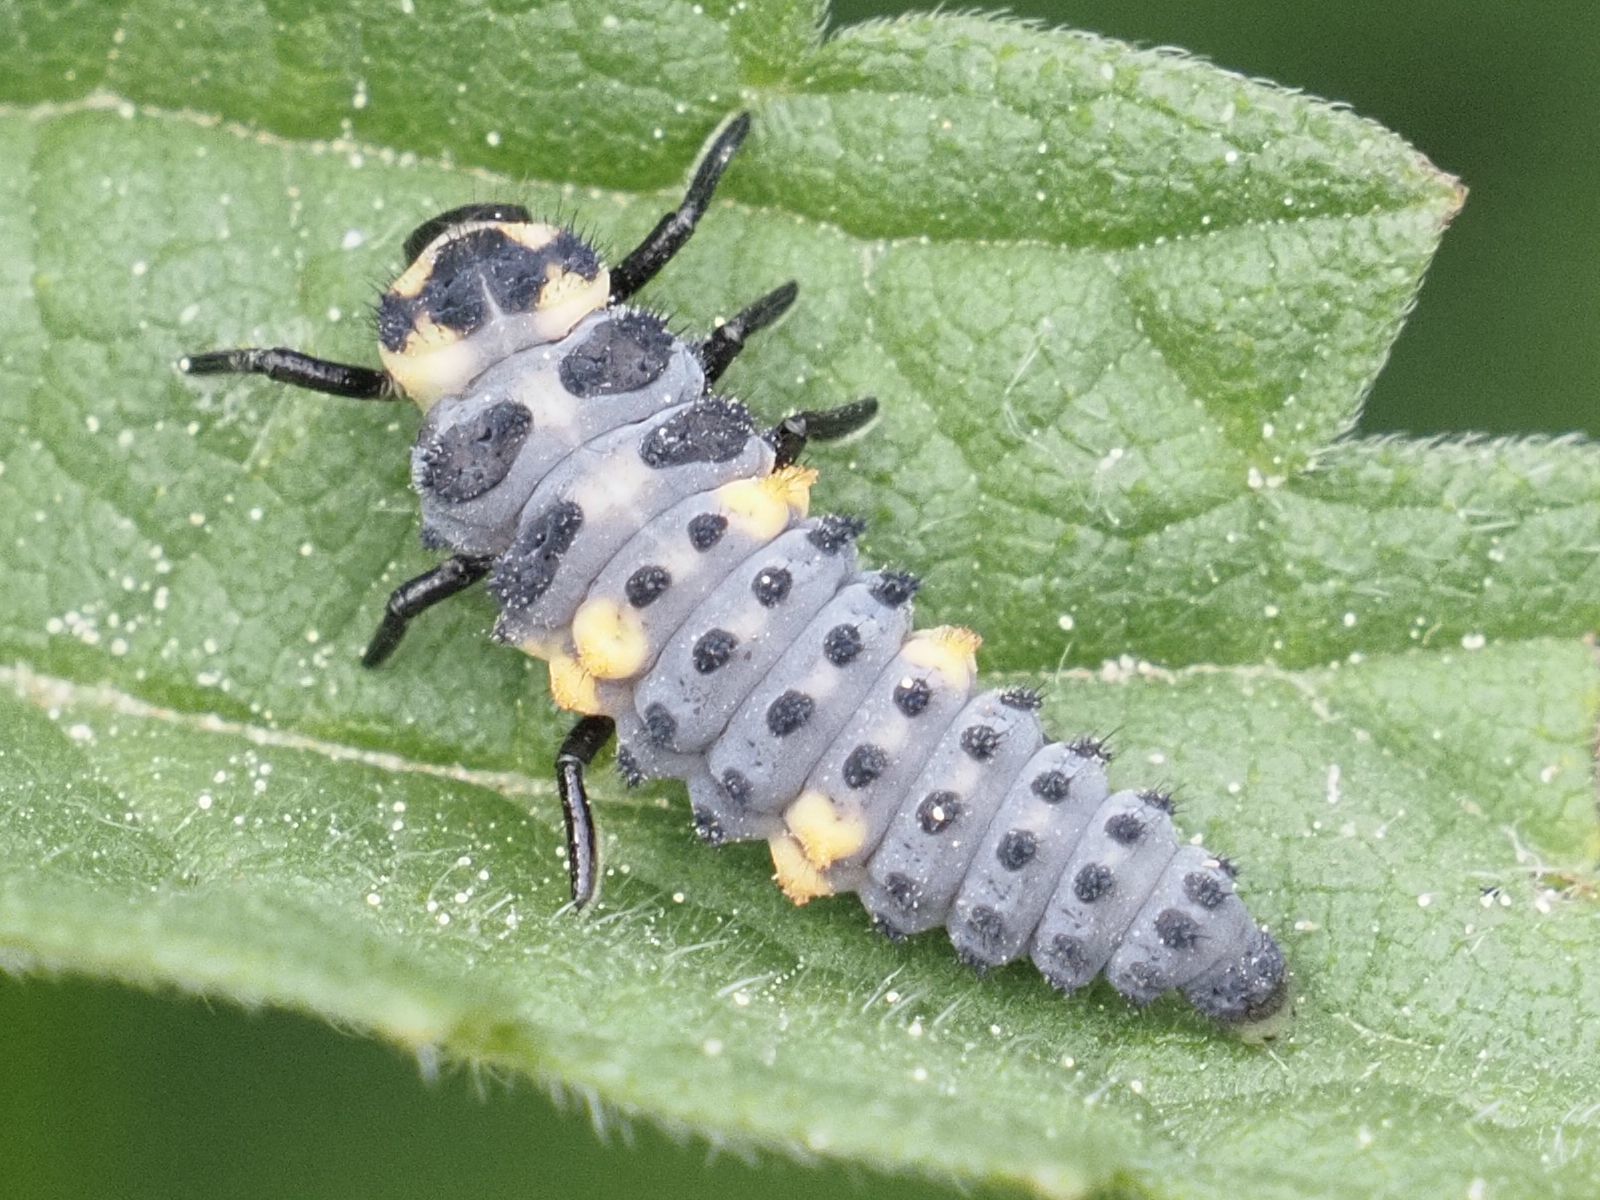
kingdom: Animalia
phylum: Arthropoda
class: Insecta
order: Coleoptera
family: Coccinellidae
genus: Coccinella
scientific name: Coccinella septempunctata
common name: Sevenspotted lady beetle
